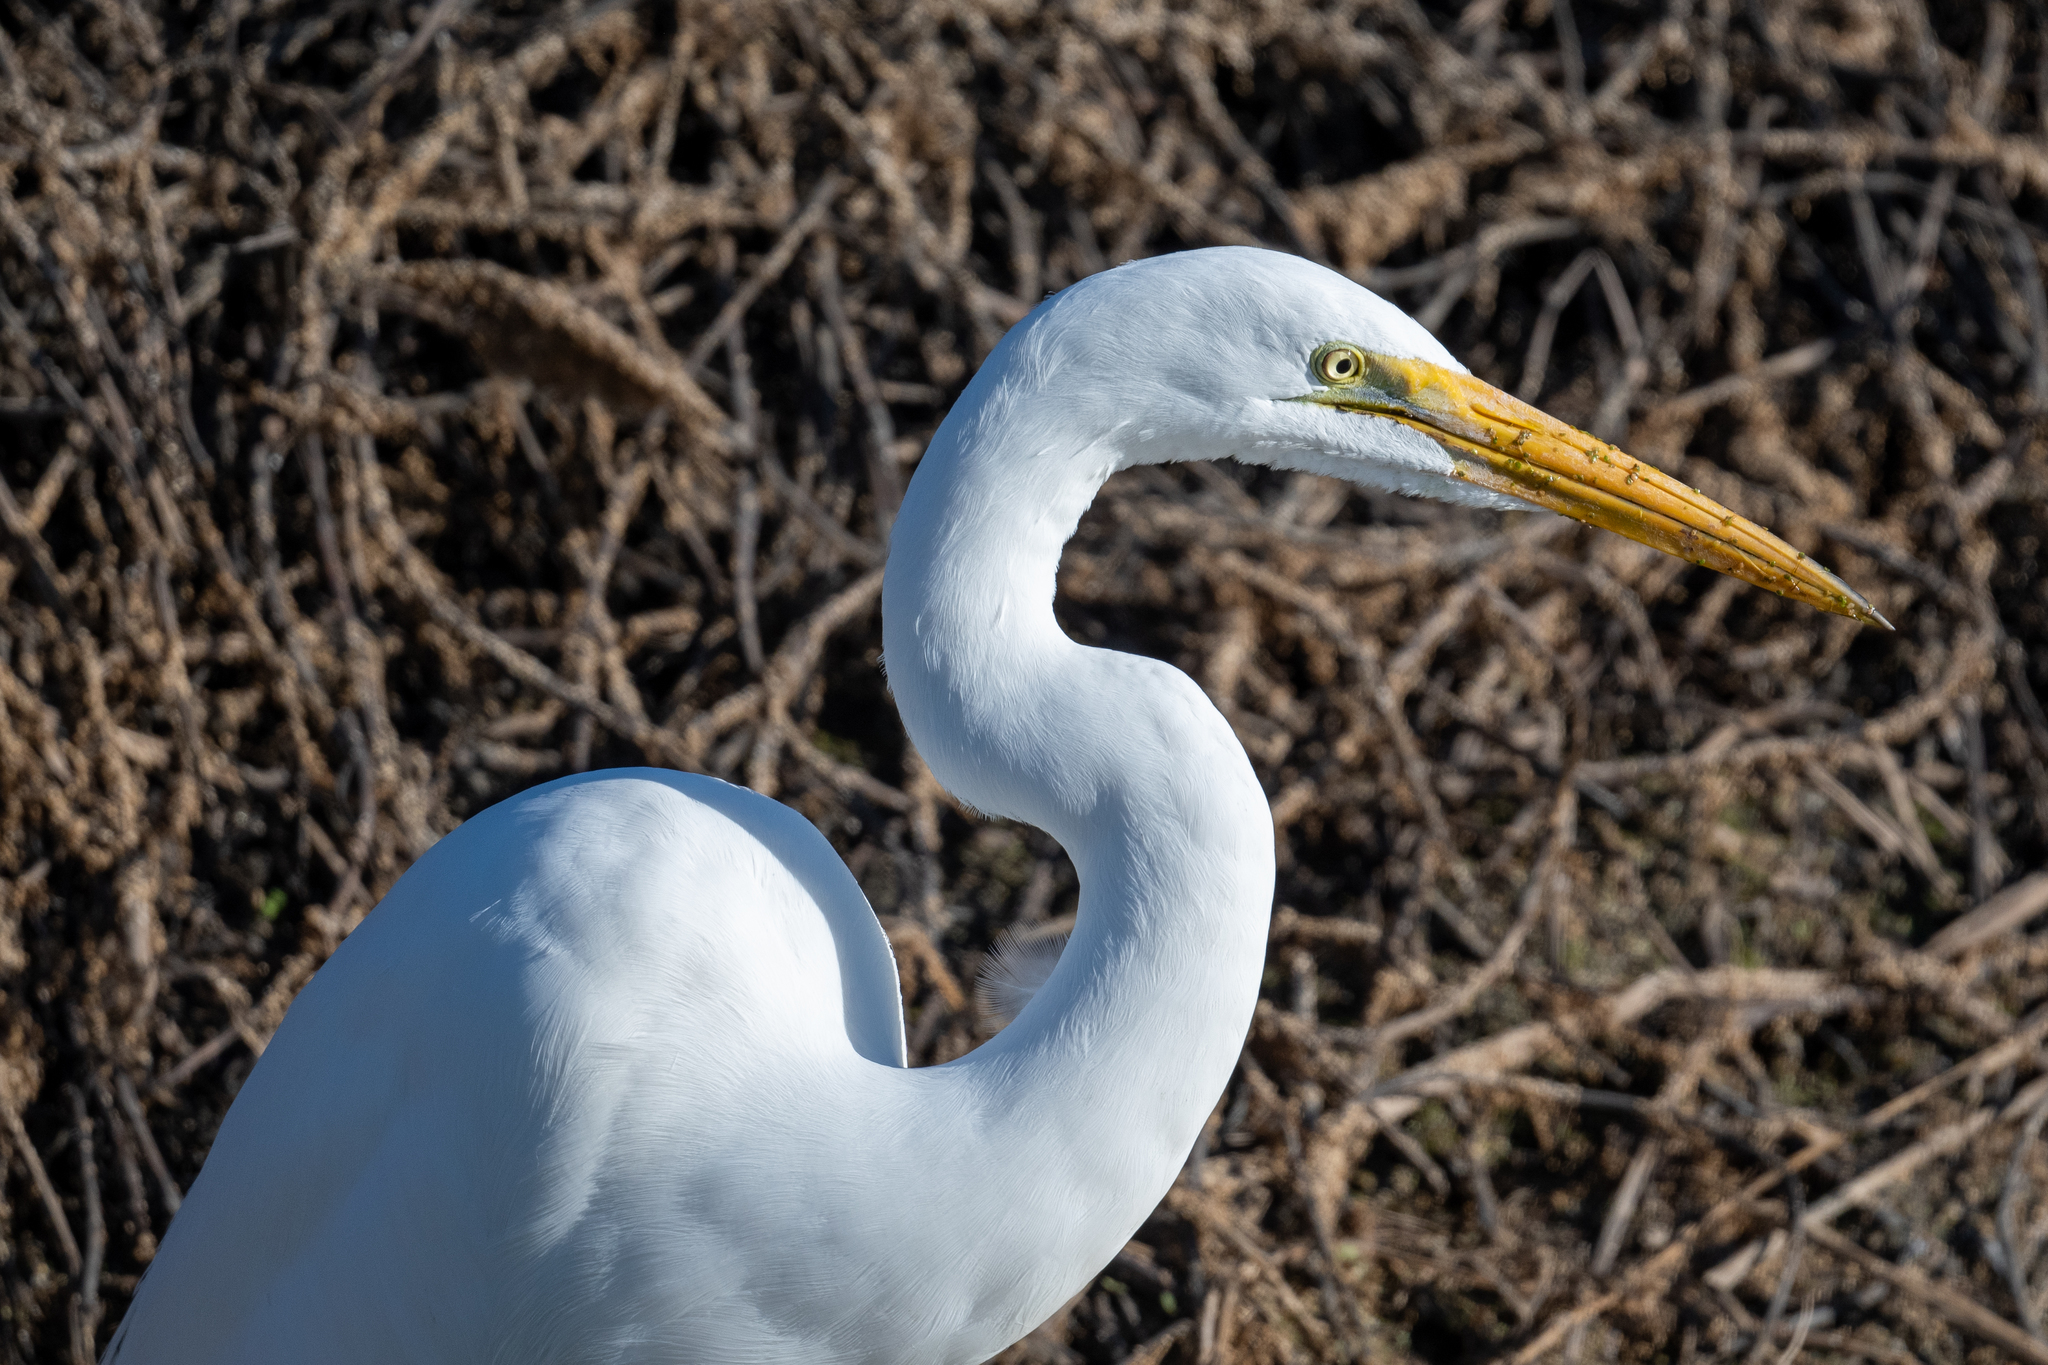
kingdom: Animalia
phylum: Chordata
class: Aves
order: Pelecaniformes
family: Ardeidae
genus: Ardea
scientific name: Ardea alba
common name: Great egret
